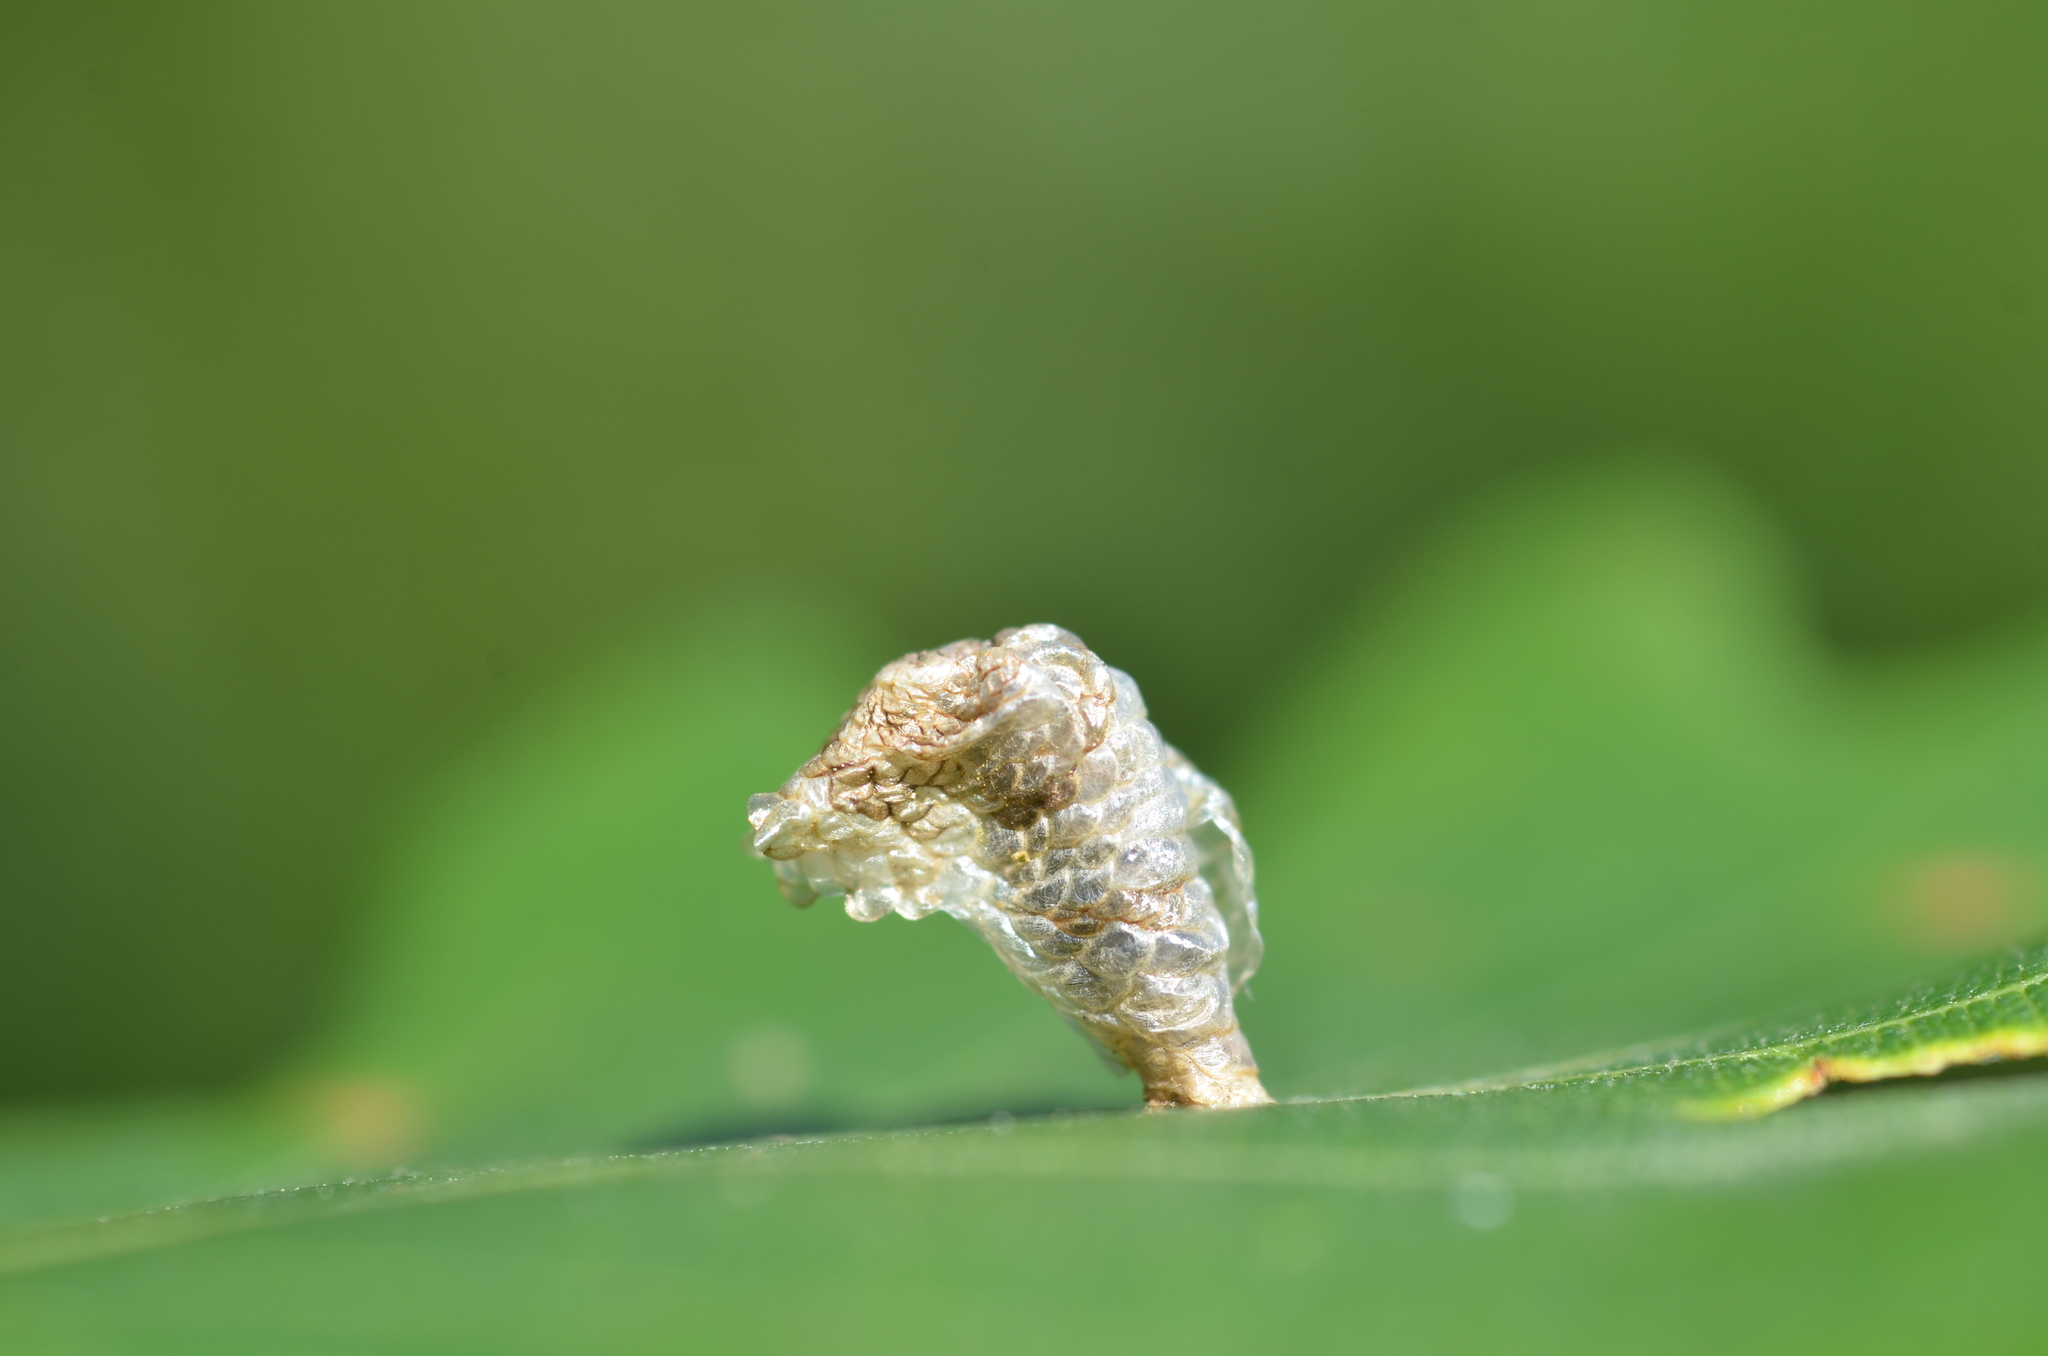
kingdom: Animalia
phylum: Arthropoda
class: Insecta
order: Lepidoptera
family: Coleophoridae
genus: Coleophora
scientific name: Coleophora kuehnella
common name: White oak case-bearer
